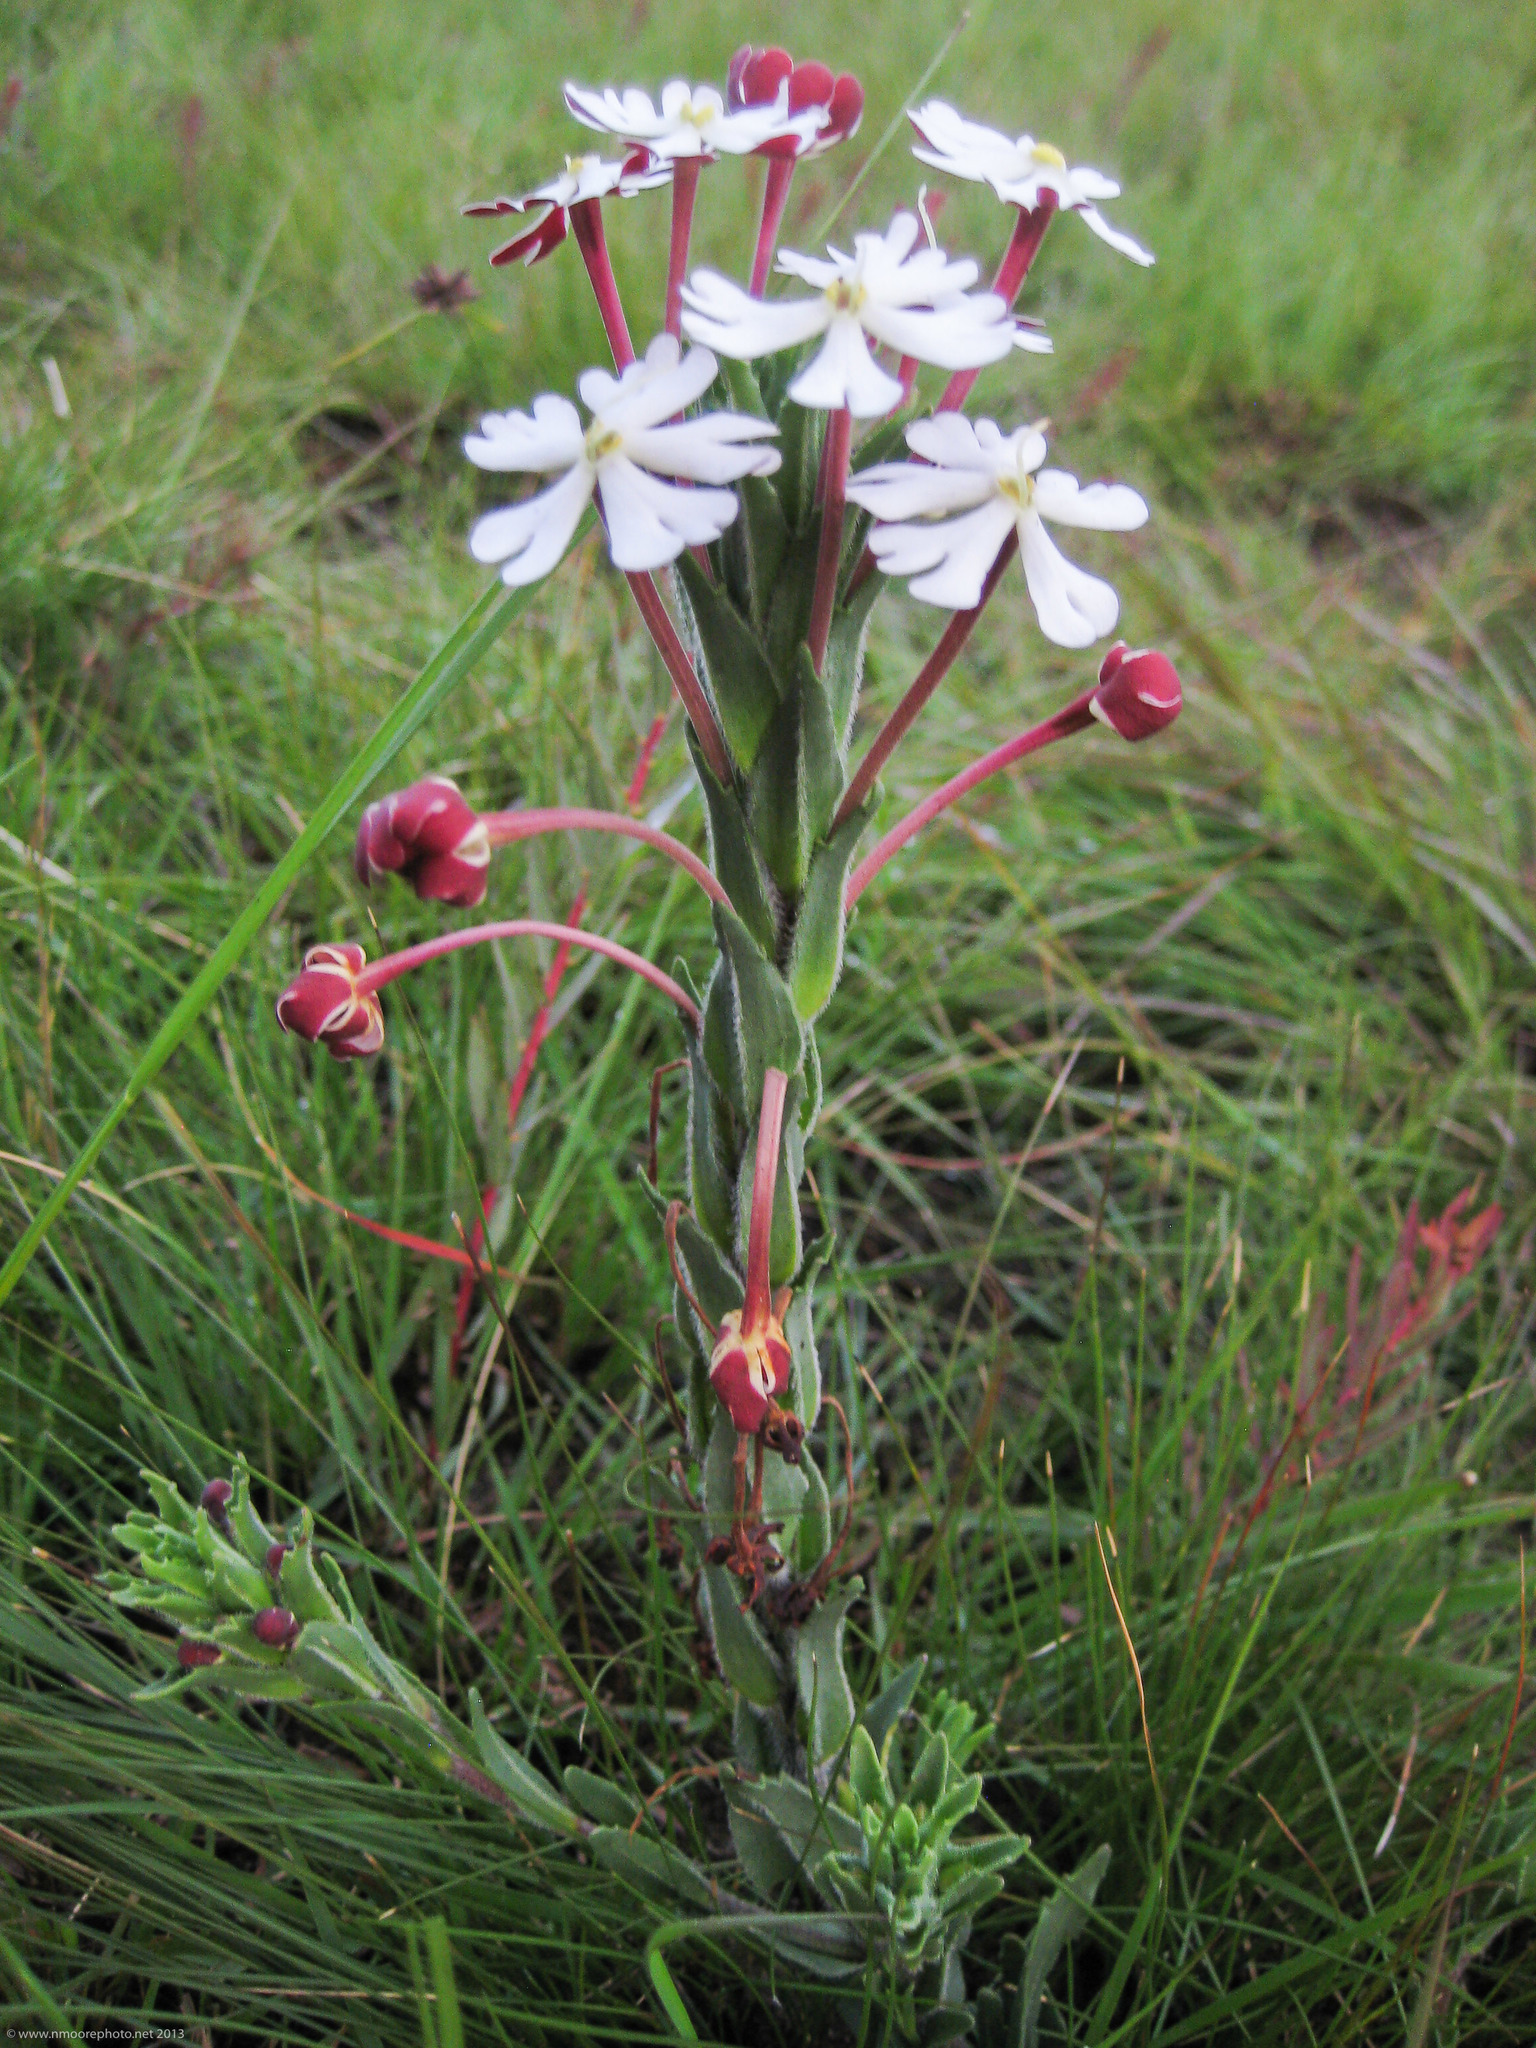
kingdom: Plantae
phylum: Tracheophyta
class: Magnoliopsida
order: Lamiales
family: Scrophulariaceae
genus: Zaluzianskya
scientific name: Zaluzianskya elongata
